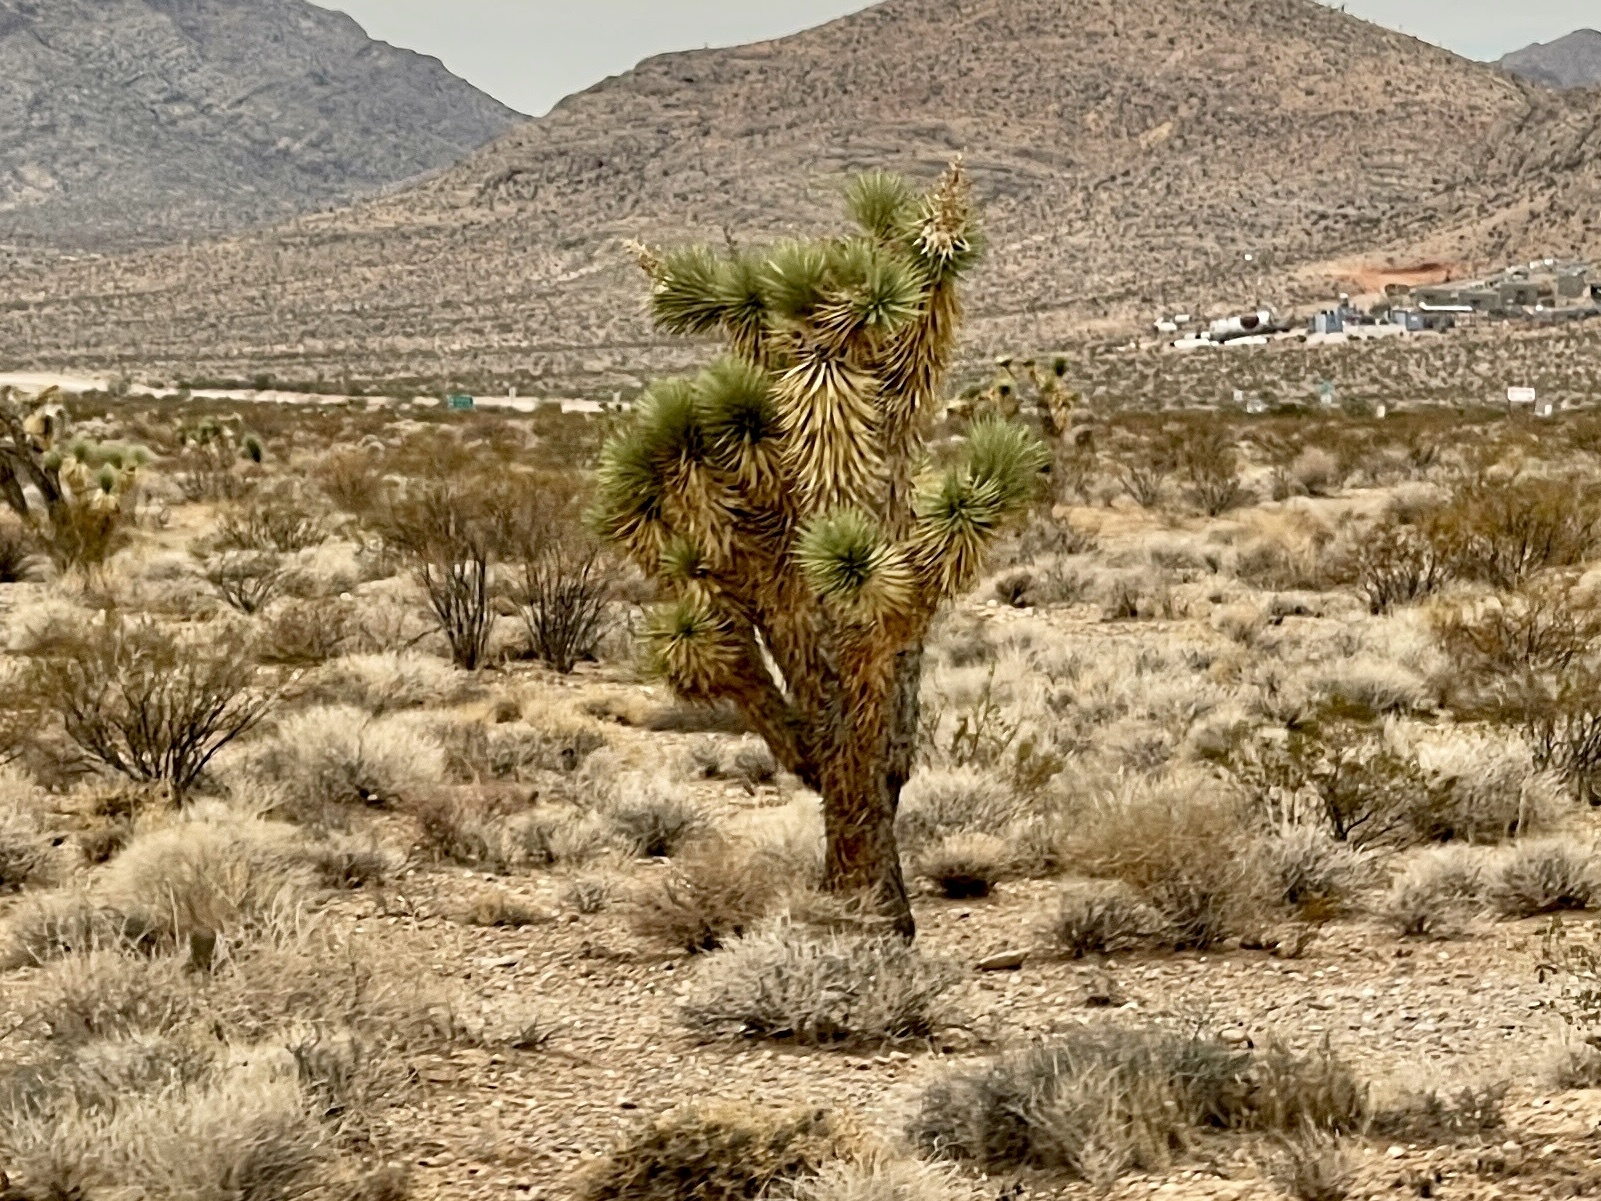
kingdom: Plantae
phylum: Tracheophyta
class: Liliopsida
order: Asparagales
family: Asparagaceae
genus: Yucca
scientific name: Yucca brevifolia
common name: Joshua tree
